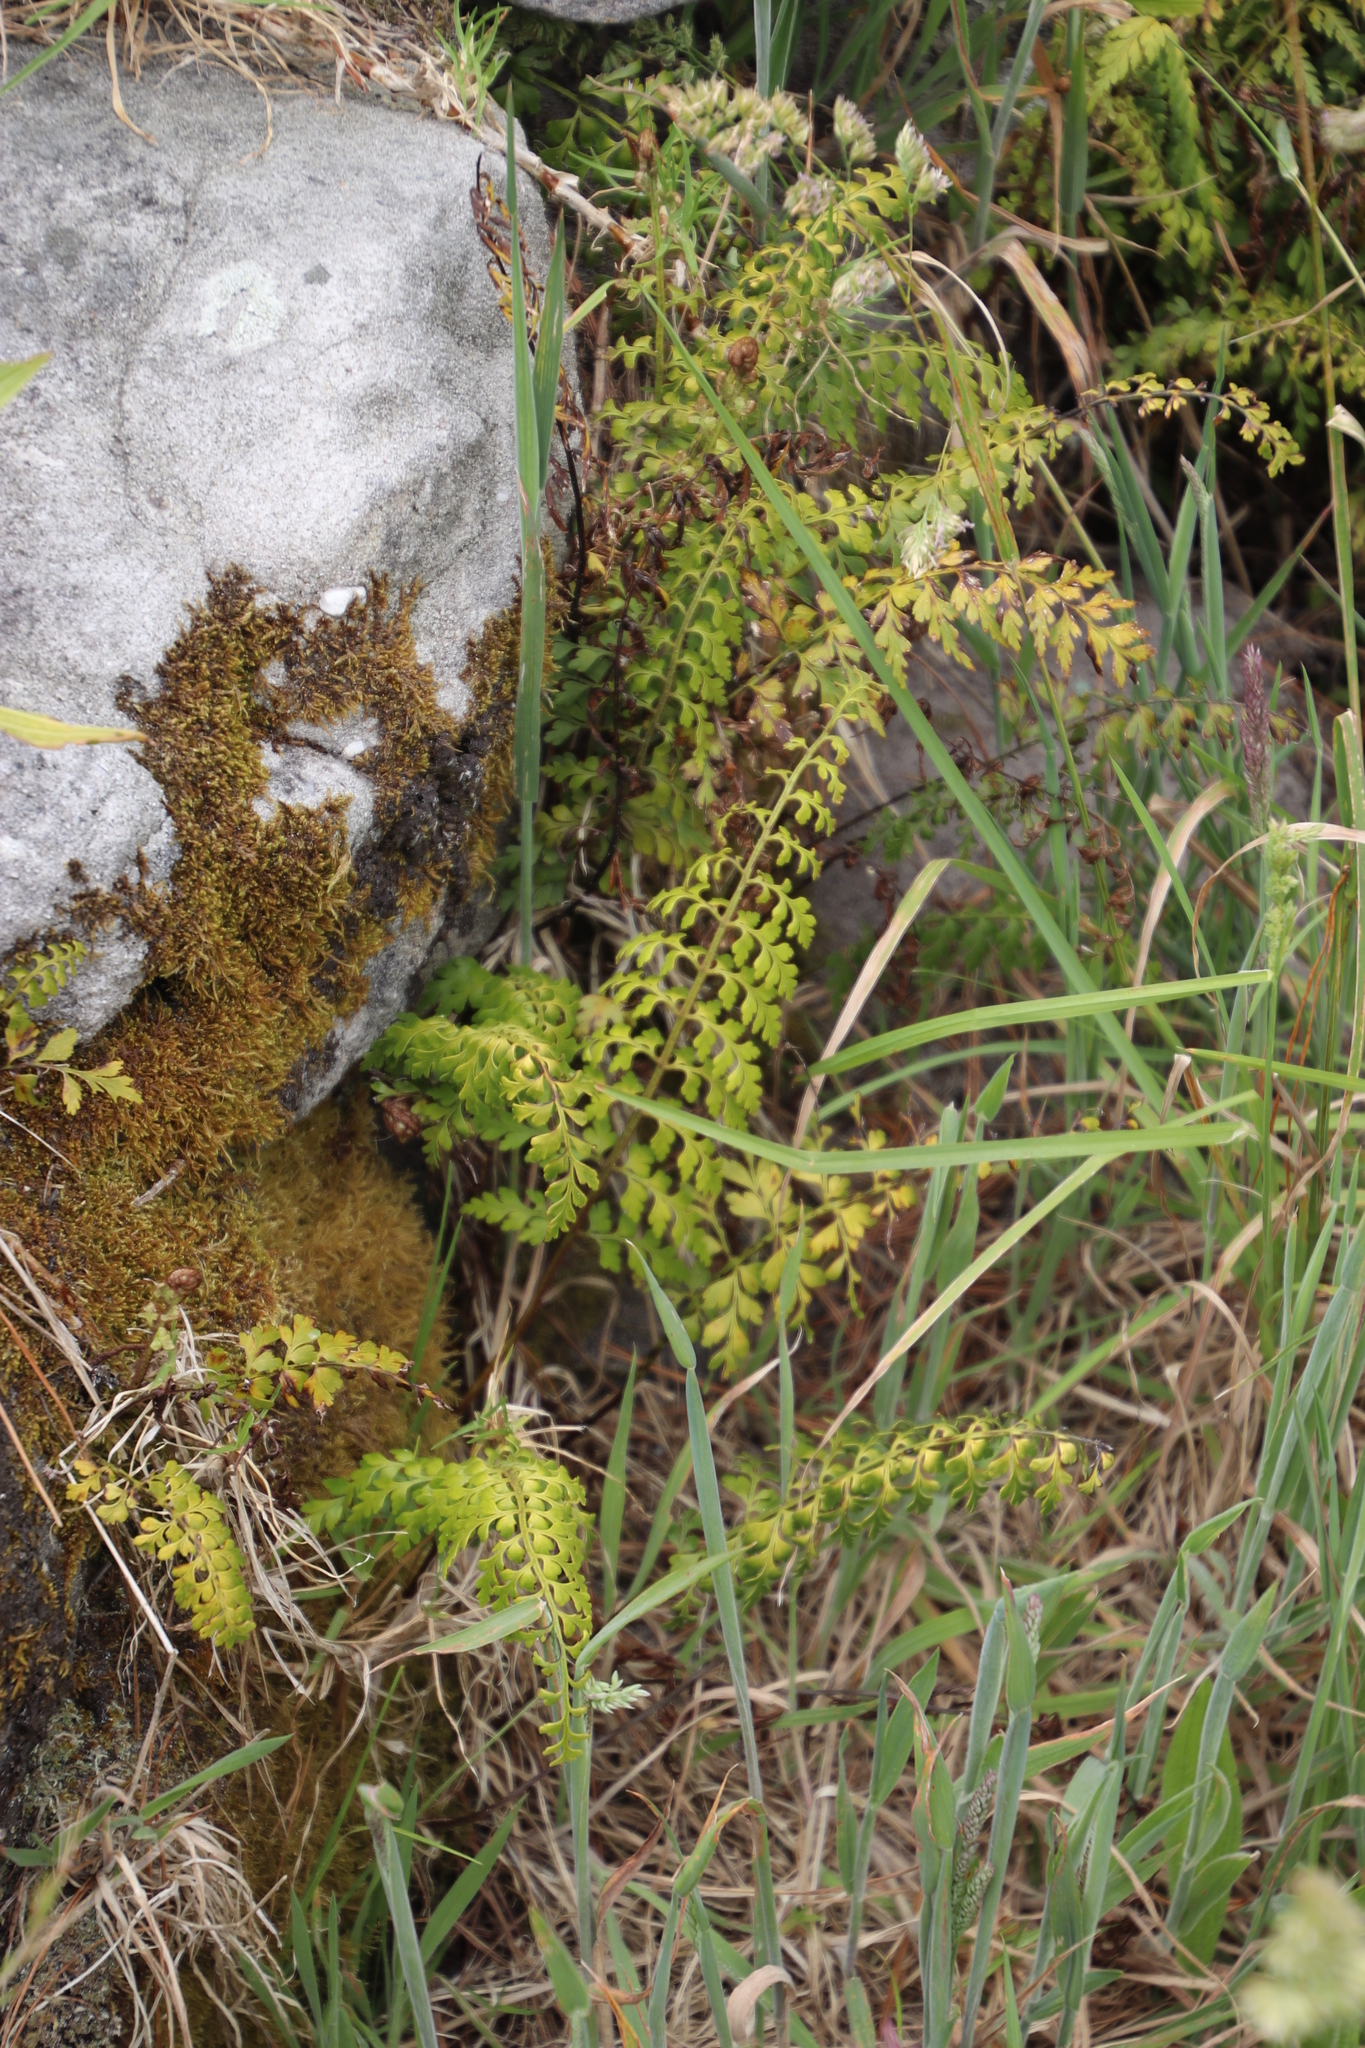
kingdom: Plantae
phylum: Tracheophyta
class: Polypodiopsida
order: Polypodiales
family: Aspleniaceae
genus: Asplenium
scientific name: Asplenium aethiopicum
